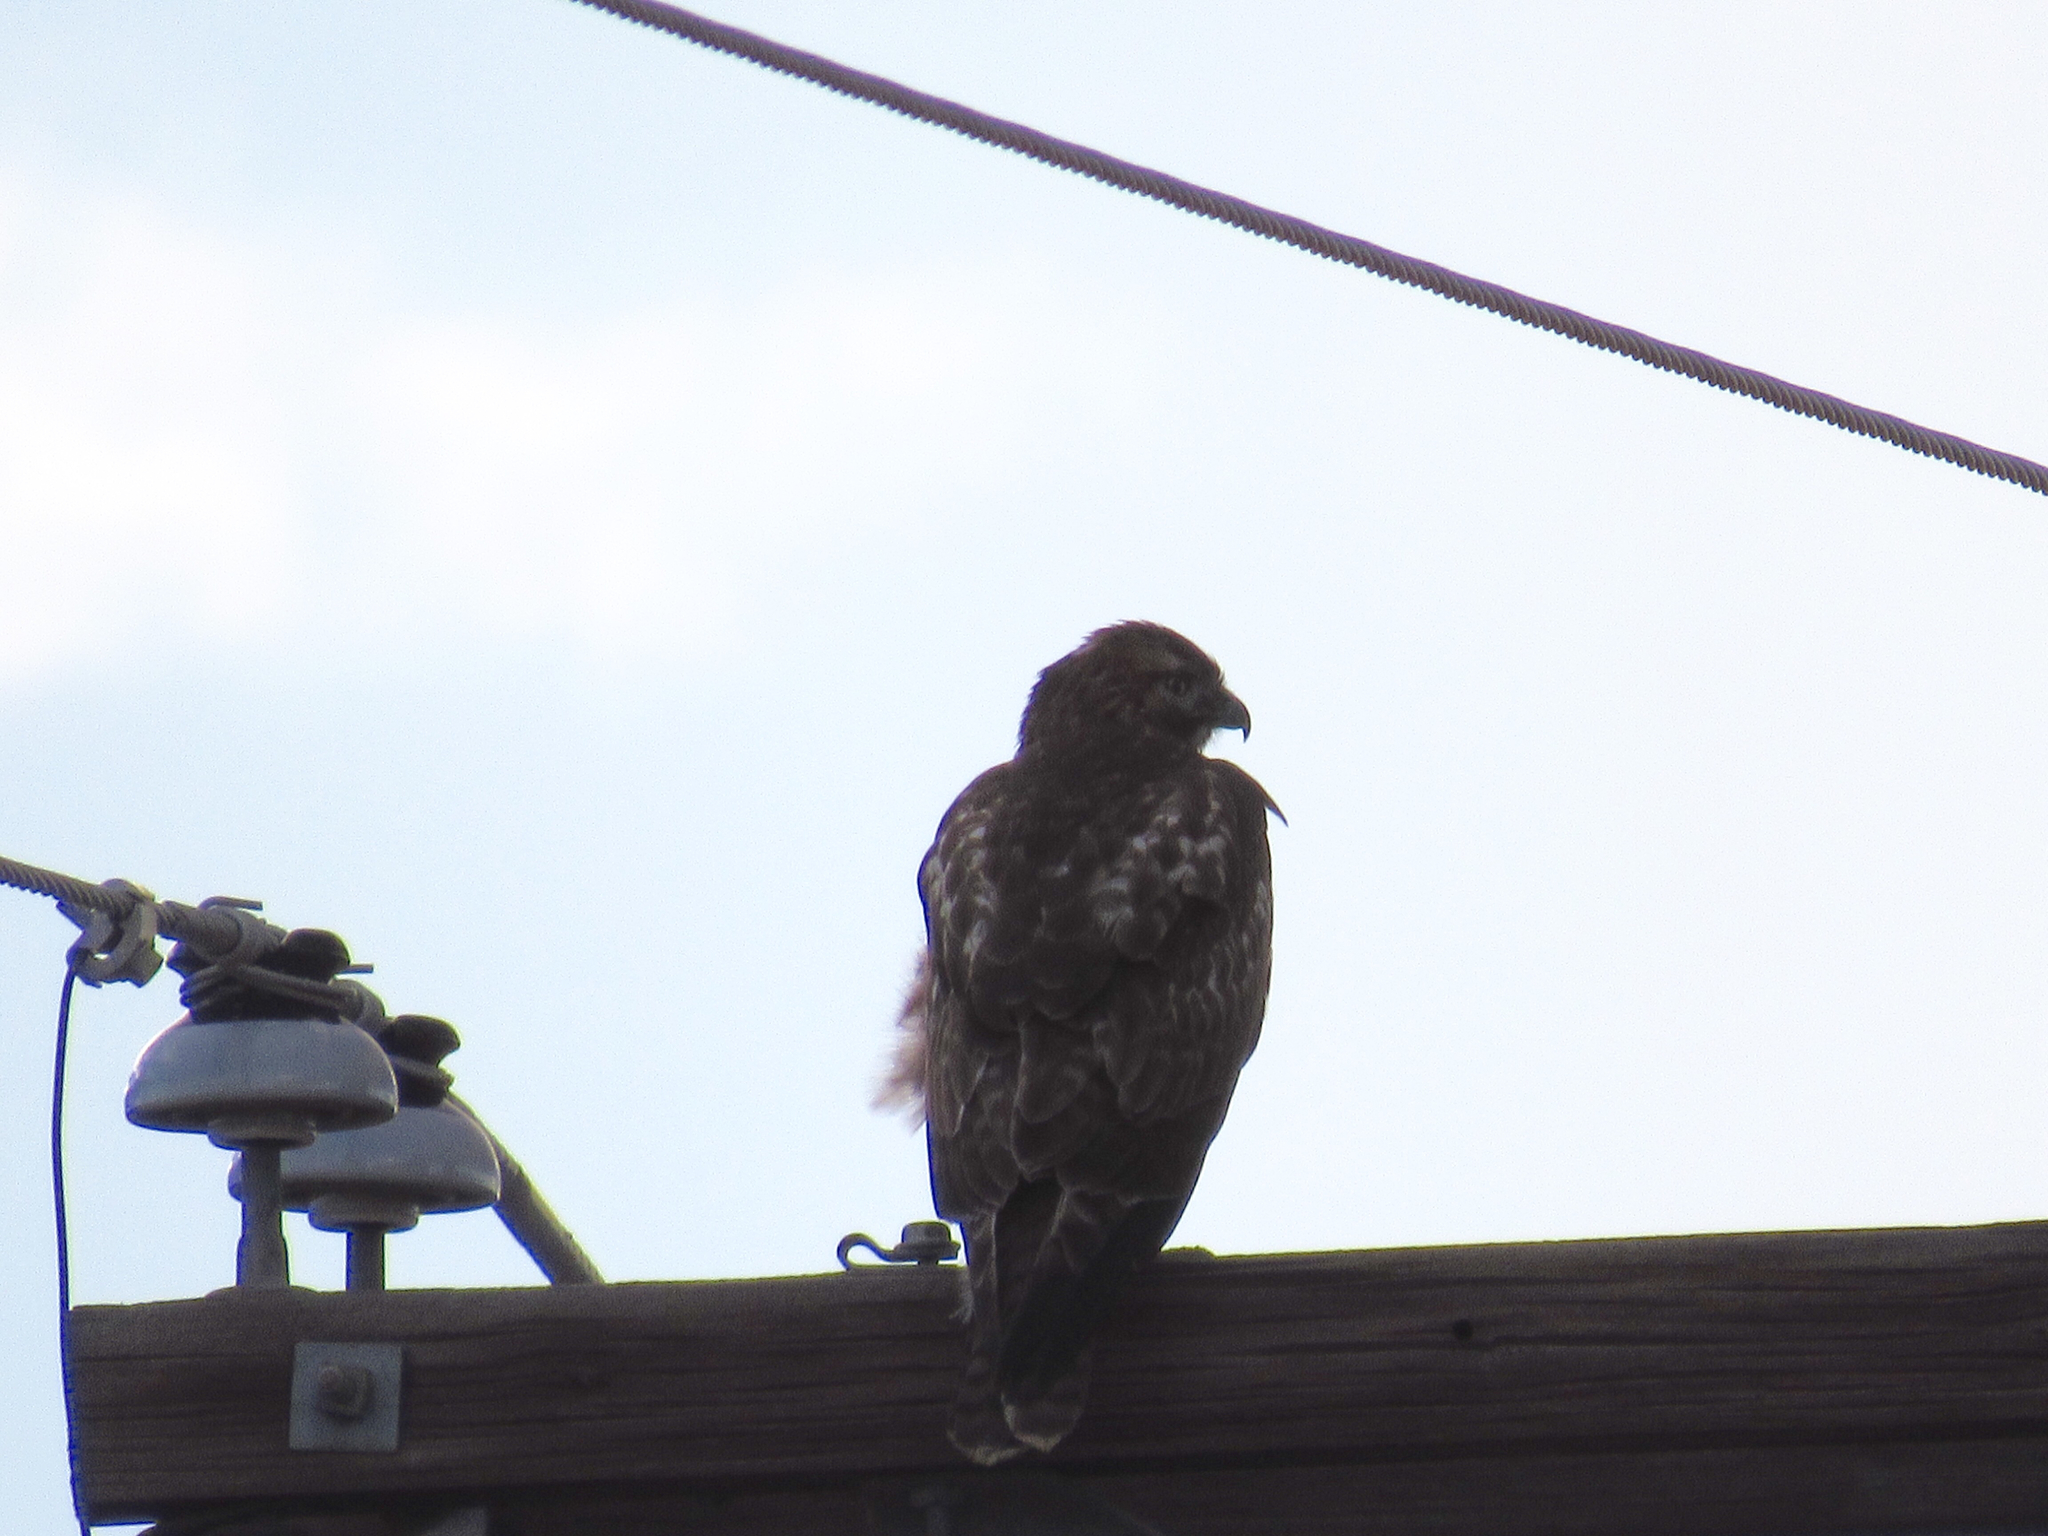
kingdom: Animalia
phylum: Chordata
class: Aves
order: Accipitriformes
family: Accipitridae
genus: Buteo
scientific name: Buteo jamaicensis
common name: Red-tailed hawk
